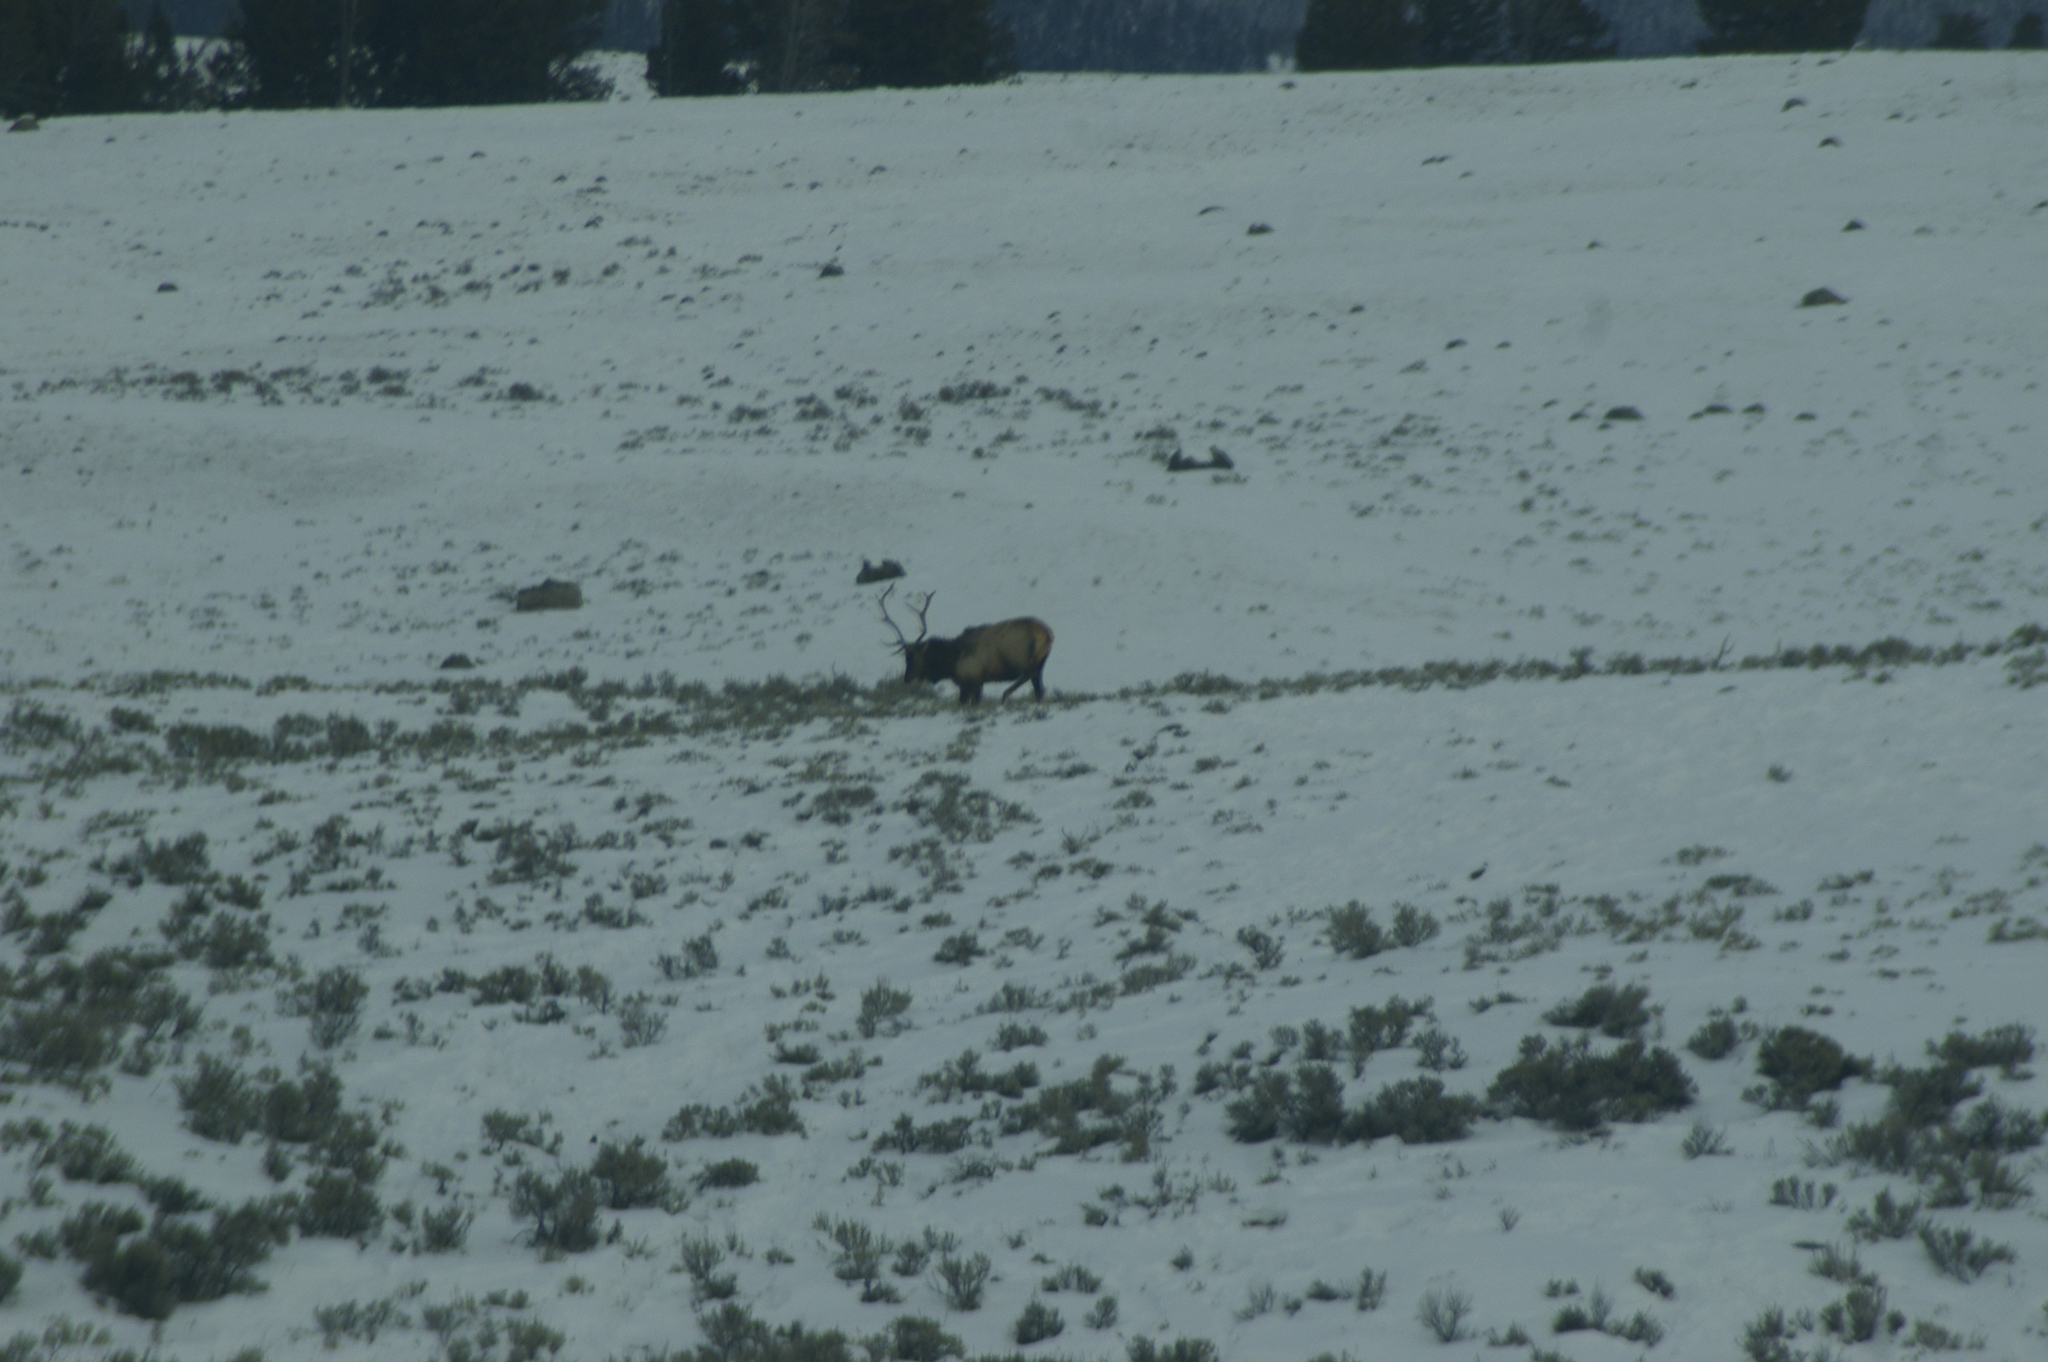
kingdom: Animalia
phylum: Chordata
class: Mammalia
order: Artiodactyla
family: Cervidae
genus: Cervus
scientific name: Cervus elaphus
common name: Red deer
